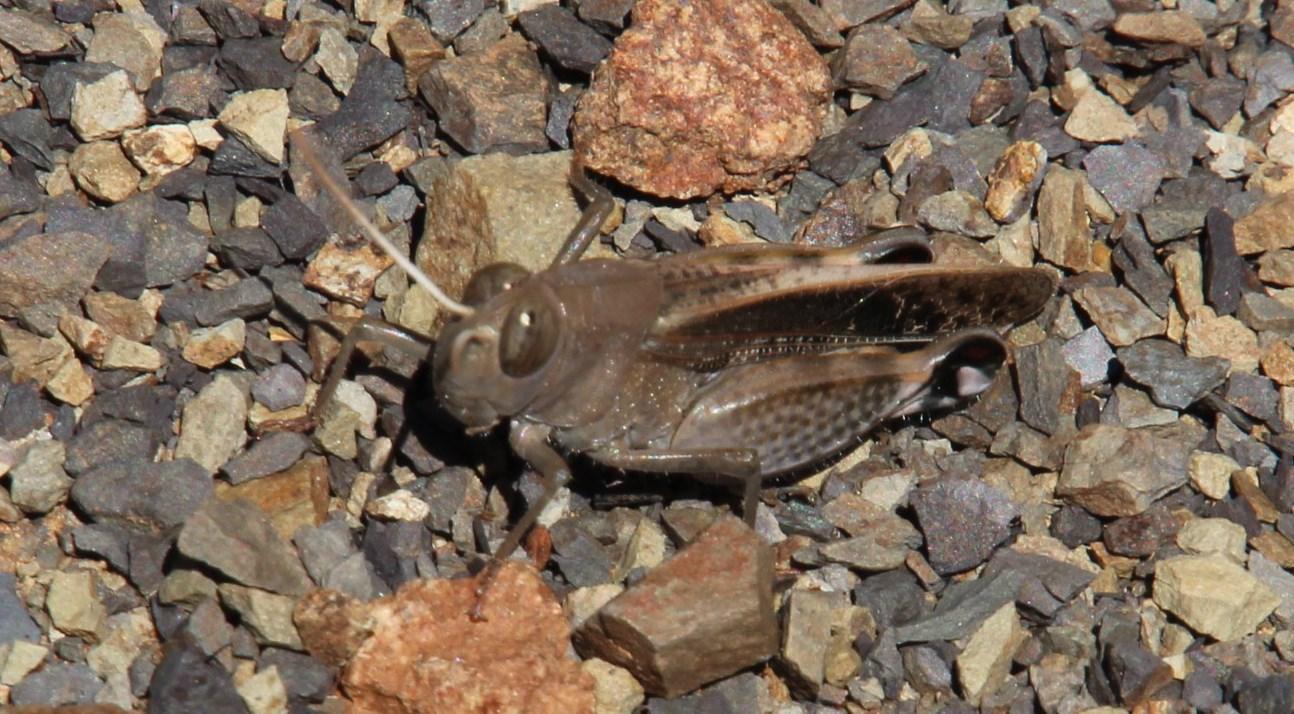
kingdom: Animalia
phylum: Arthropoda
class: Insecta
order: Orthoptera
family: Acrididae
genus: Sphodromerus
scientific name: Sphodromerus gilli
